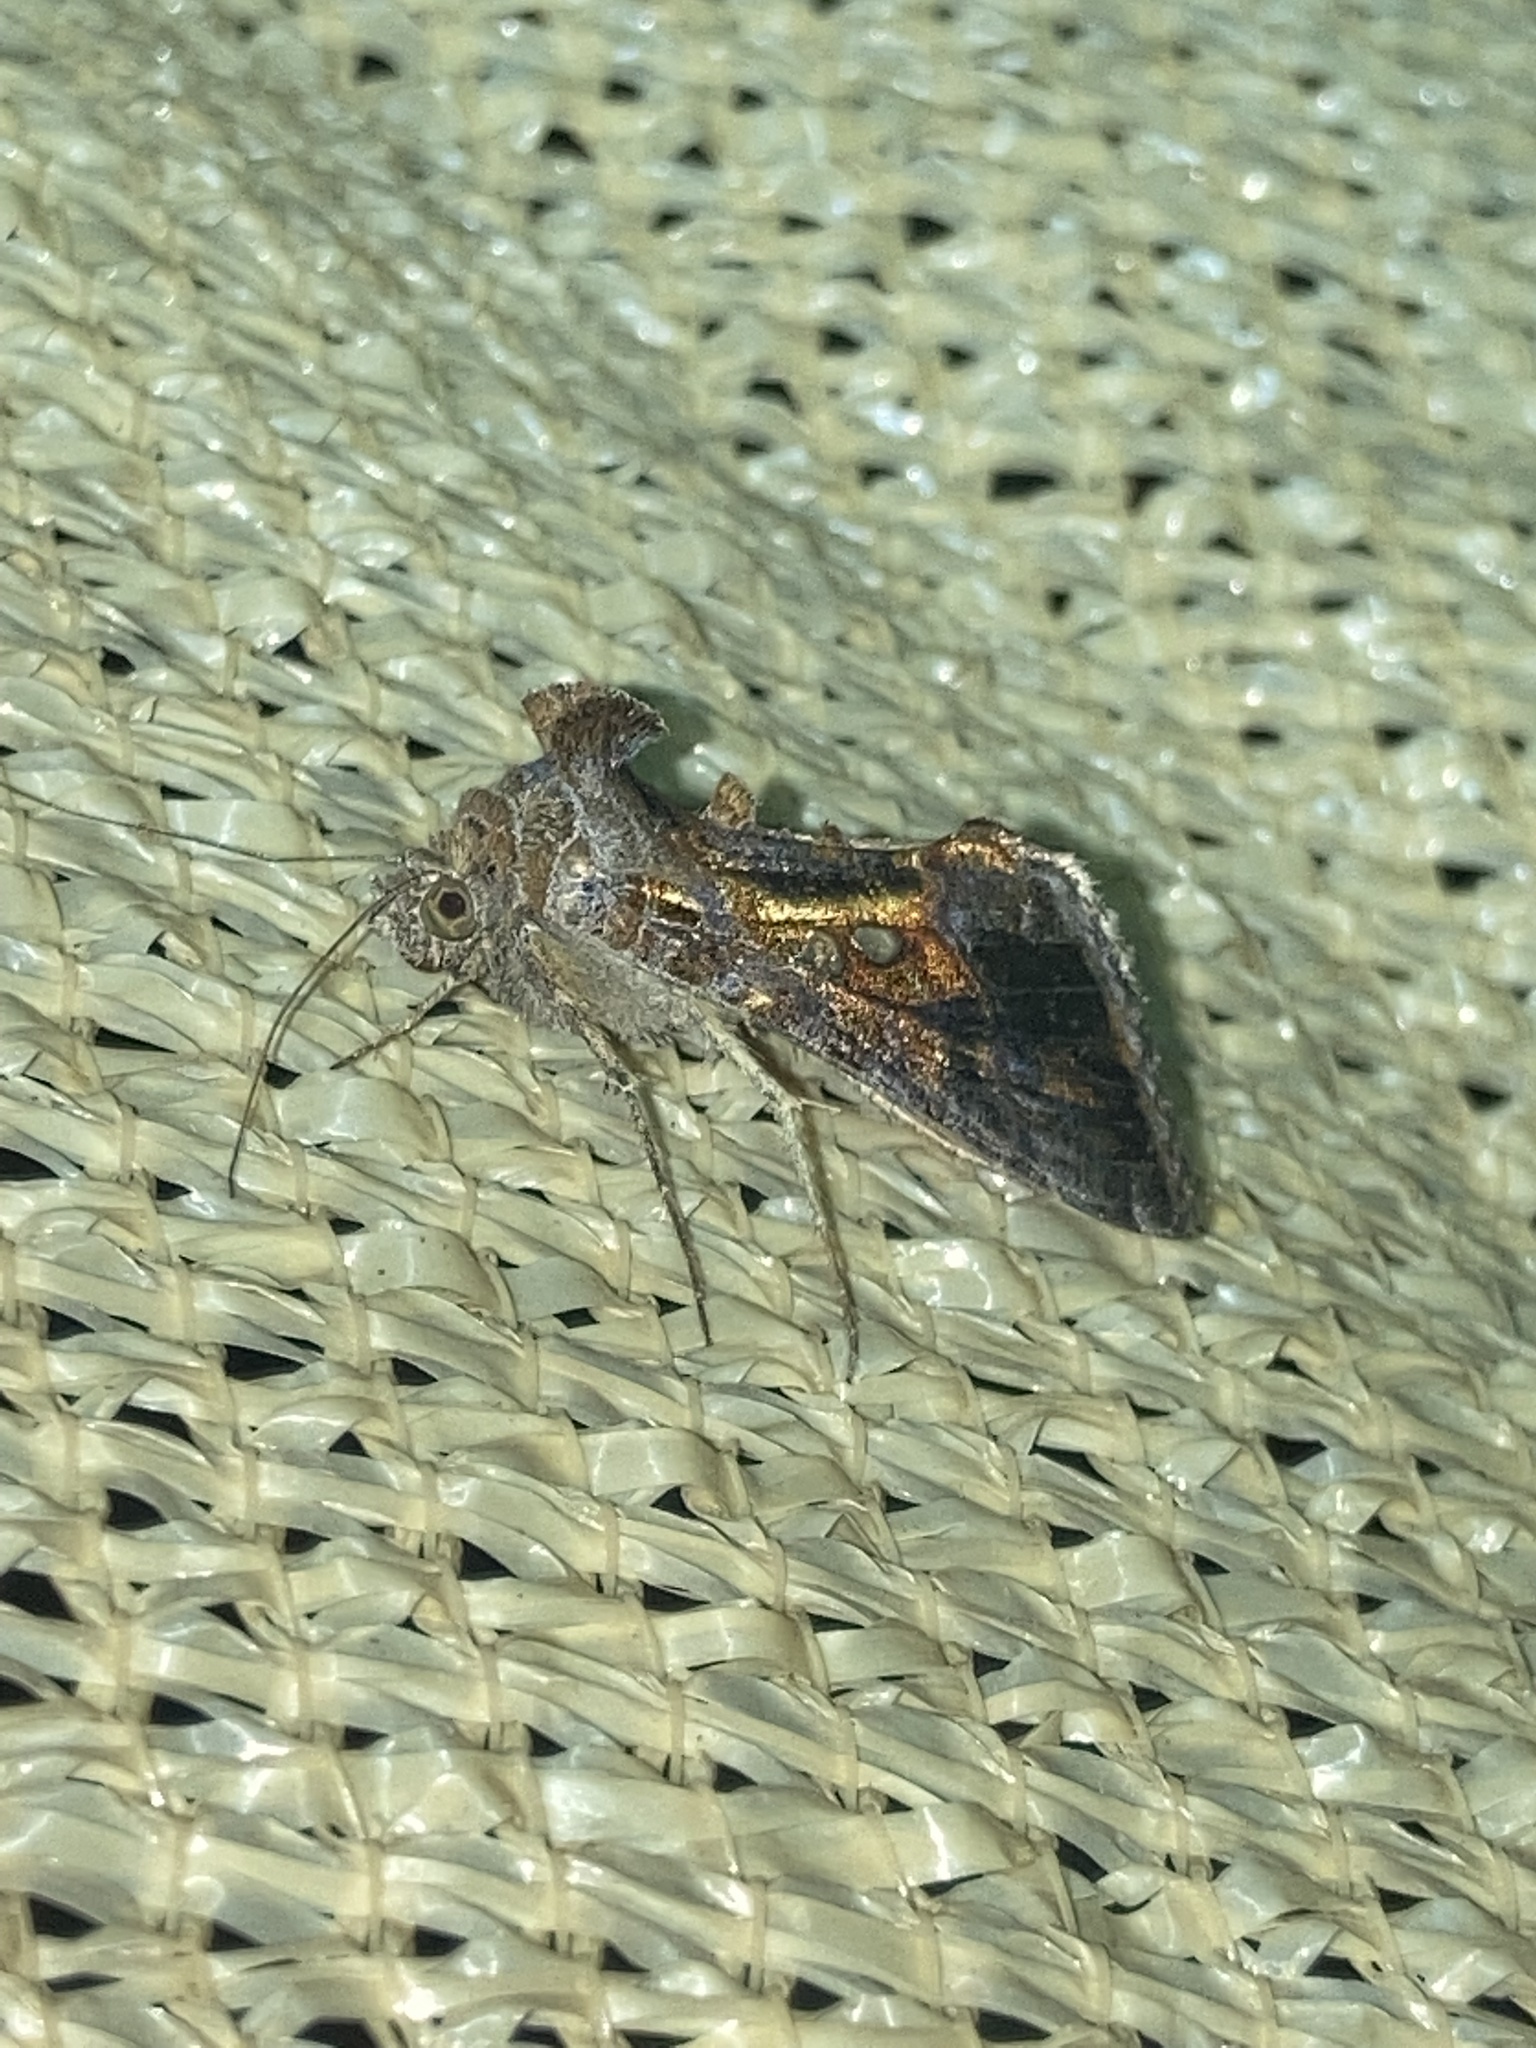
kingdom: Animalia
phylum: Arthropoda
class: Insecta
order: Lepidoptera
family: Noctuidae
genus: Chrysodeixis
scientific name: Chrysodeixis includens
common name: Cutworm moth
